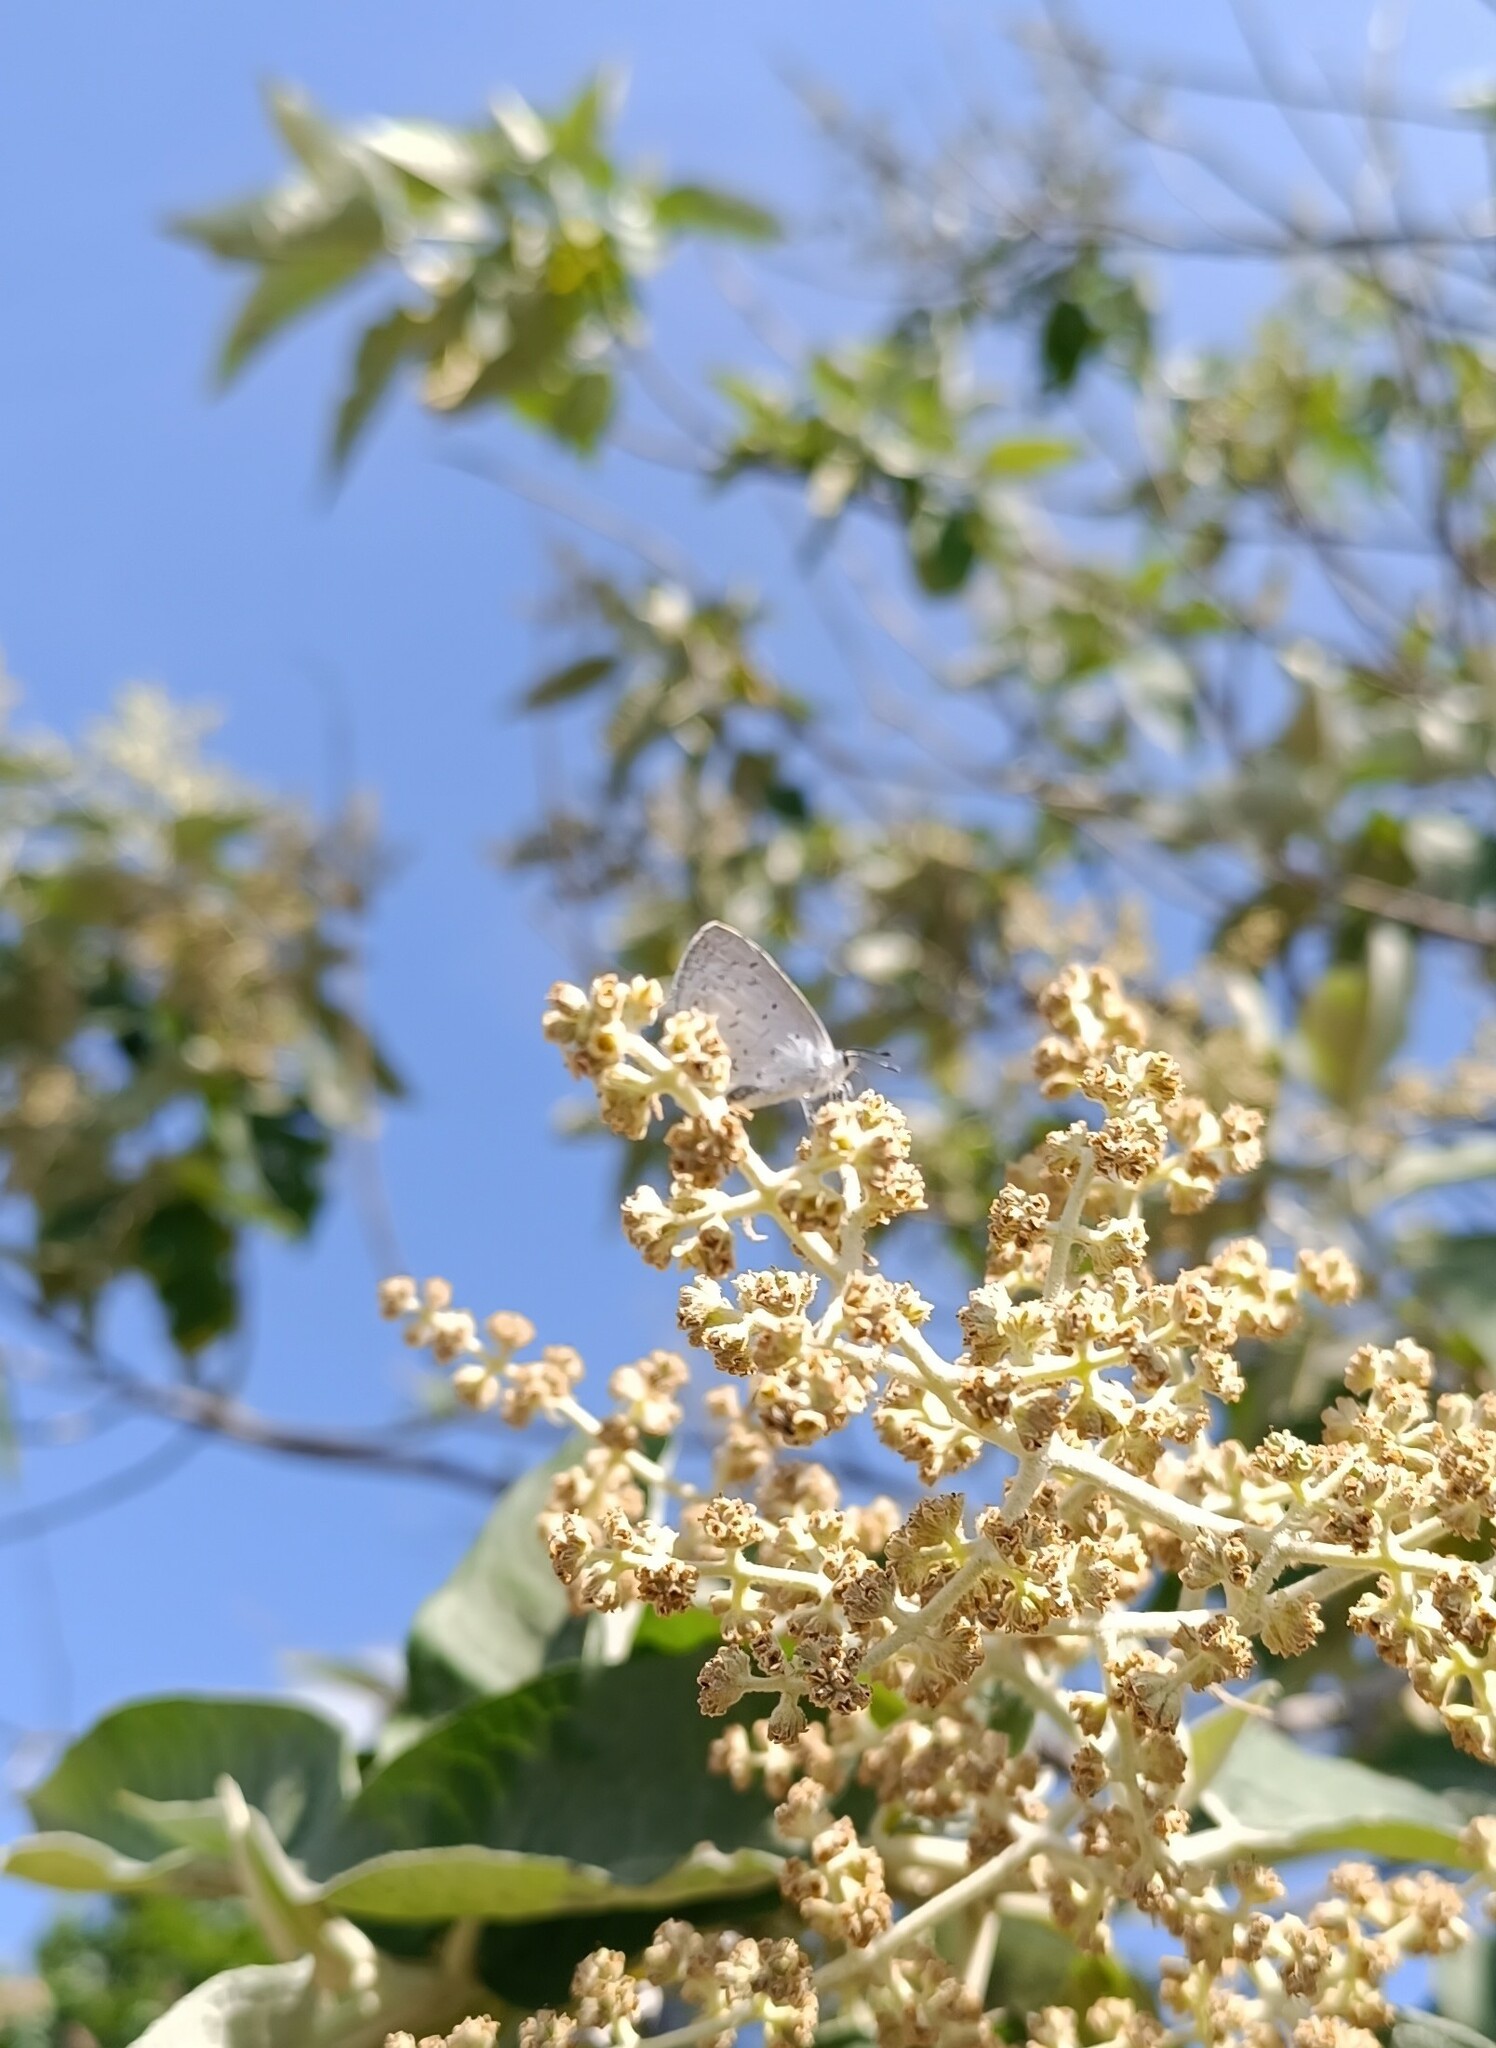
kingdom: Animalia
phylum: Arthropoda
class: Insecta
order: Lepidoptera
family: Lycaenidae
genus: Celastrina
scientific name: Celastrina ladon
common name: Spring azure
